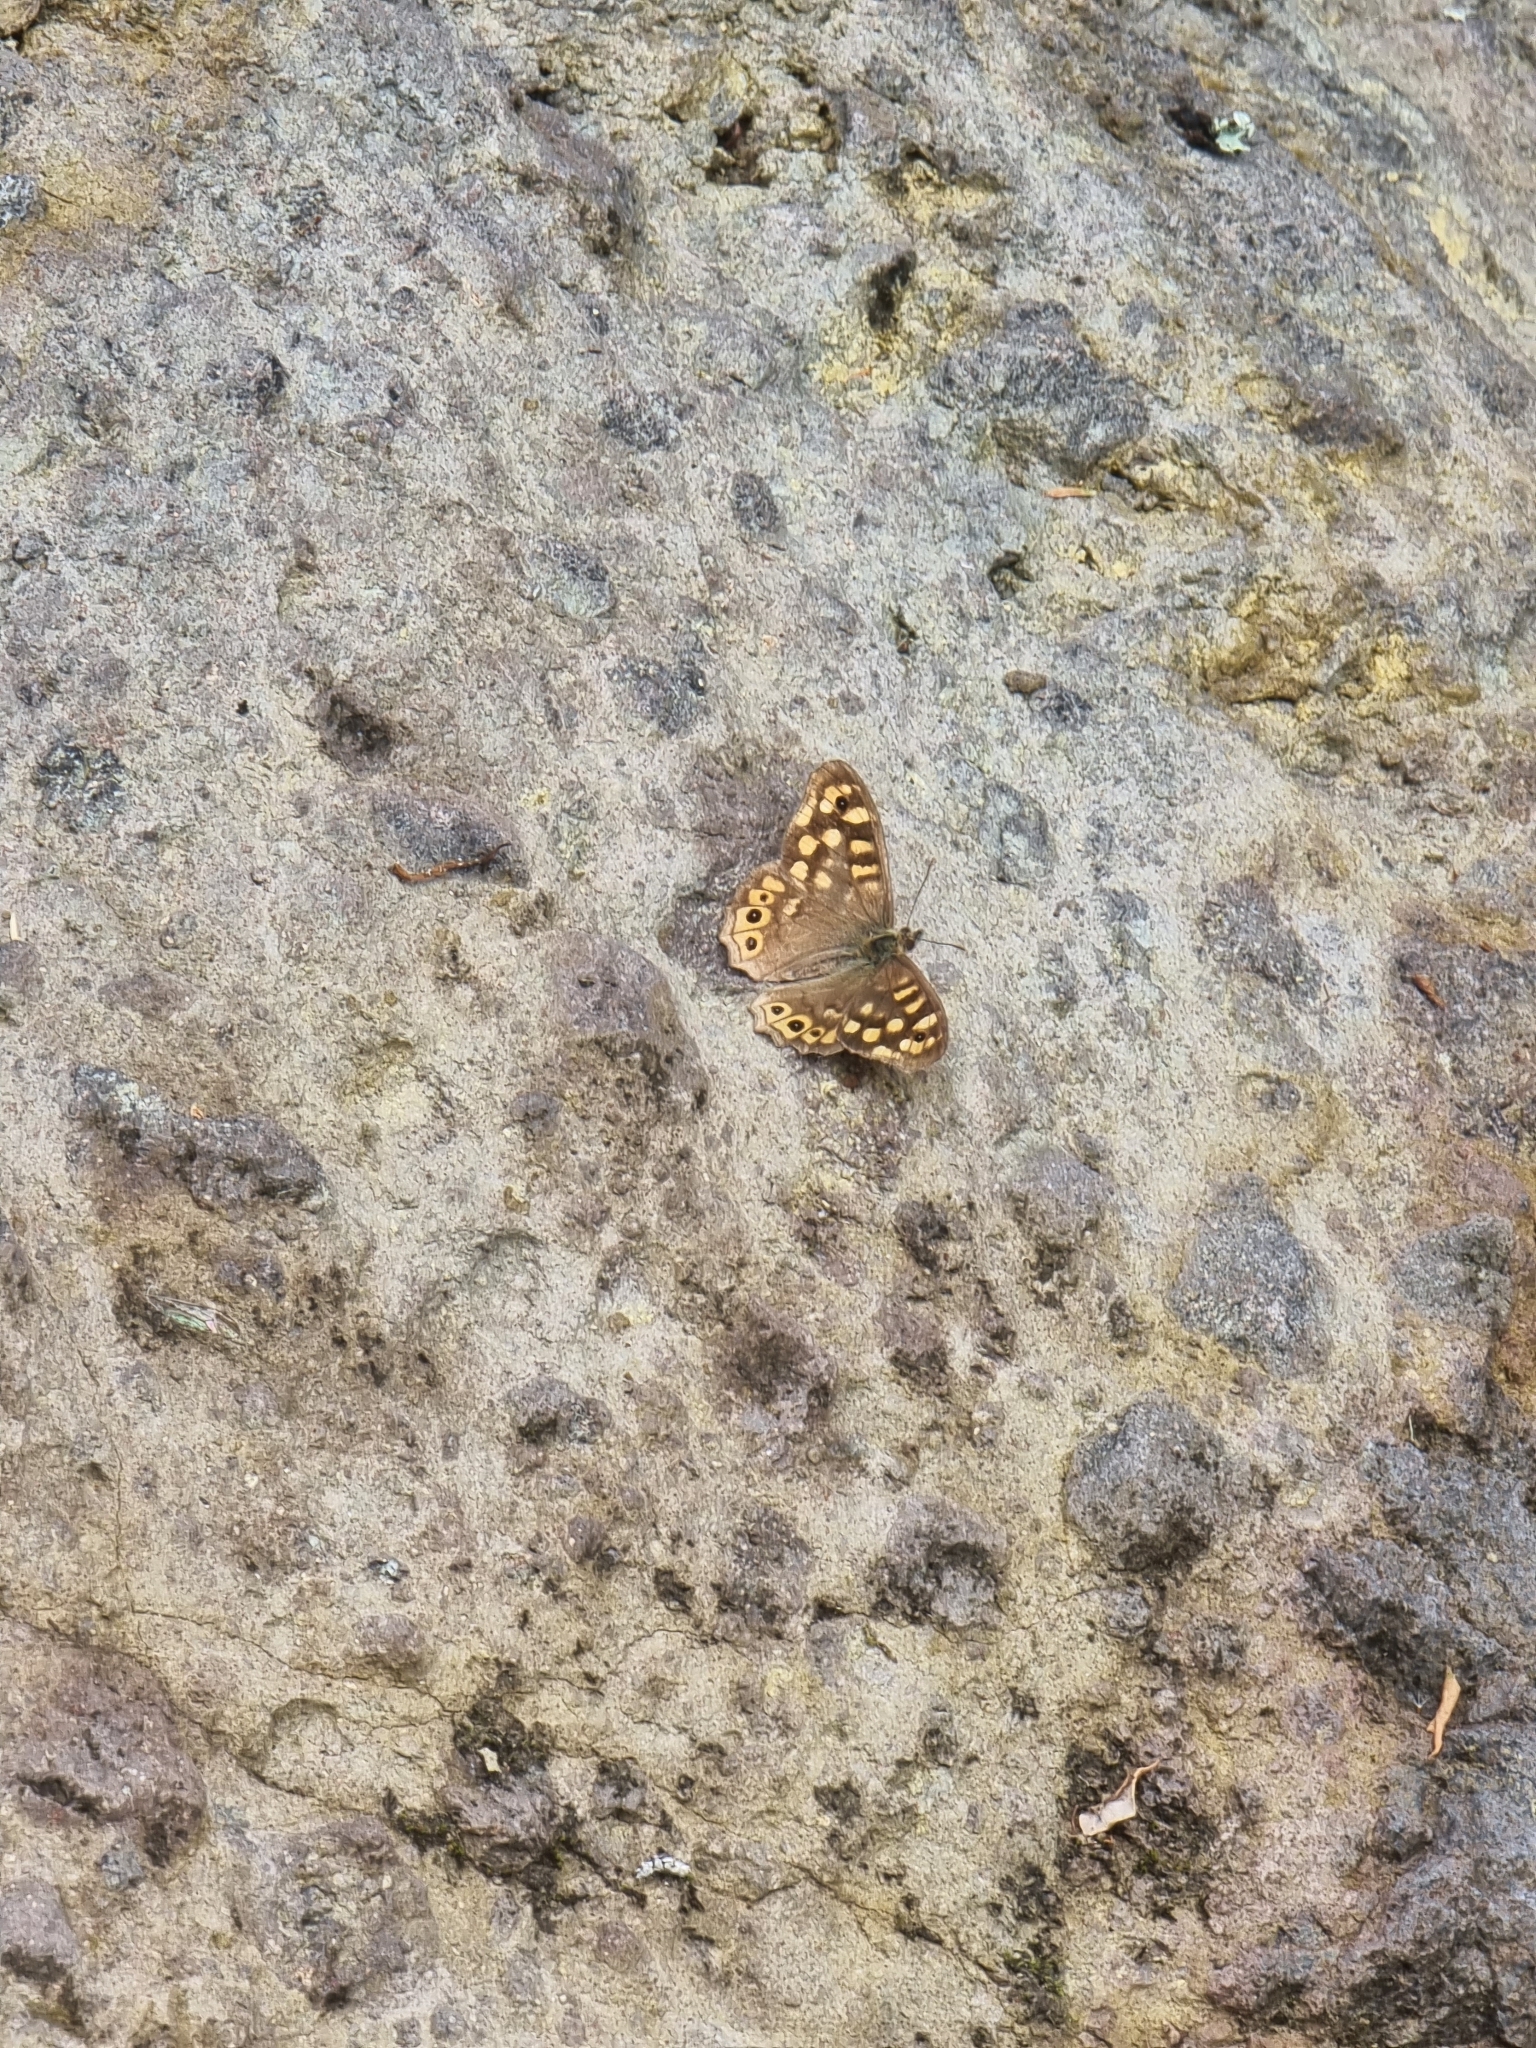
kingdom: Animalia
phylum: Arthropoda
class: Insecta
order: Lepidoptera
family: Nymphalidae
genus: Pararge
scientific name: Pararge aegeria
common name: Speckled wood
